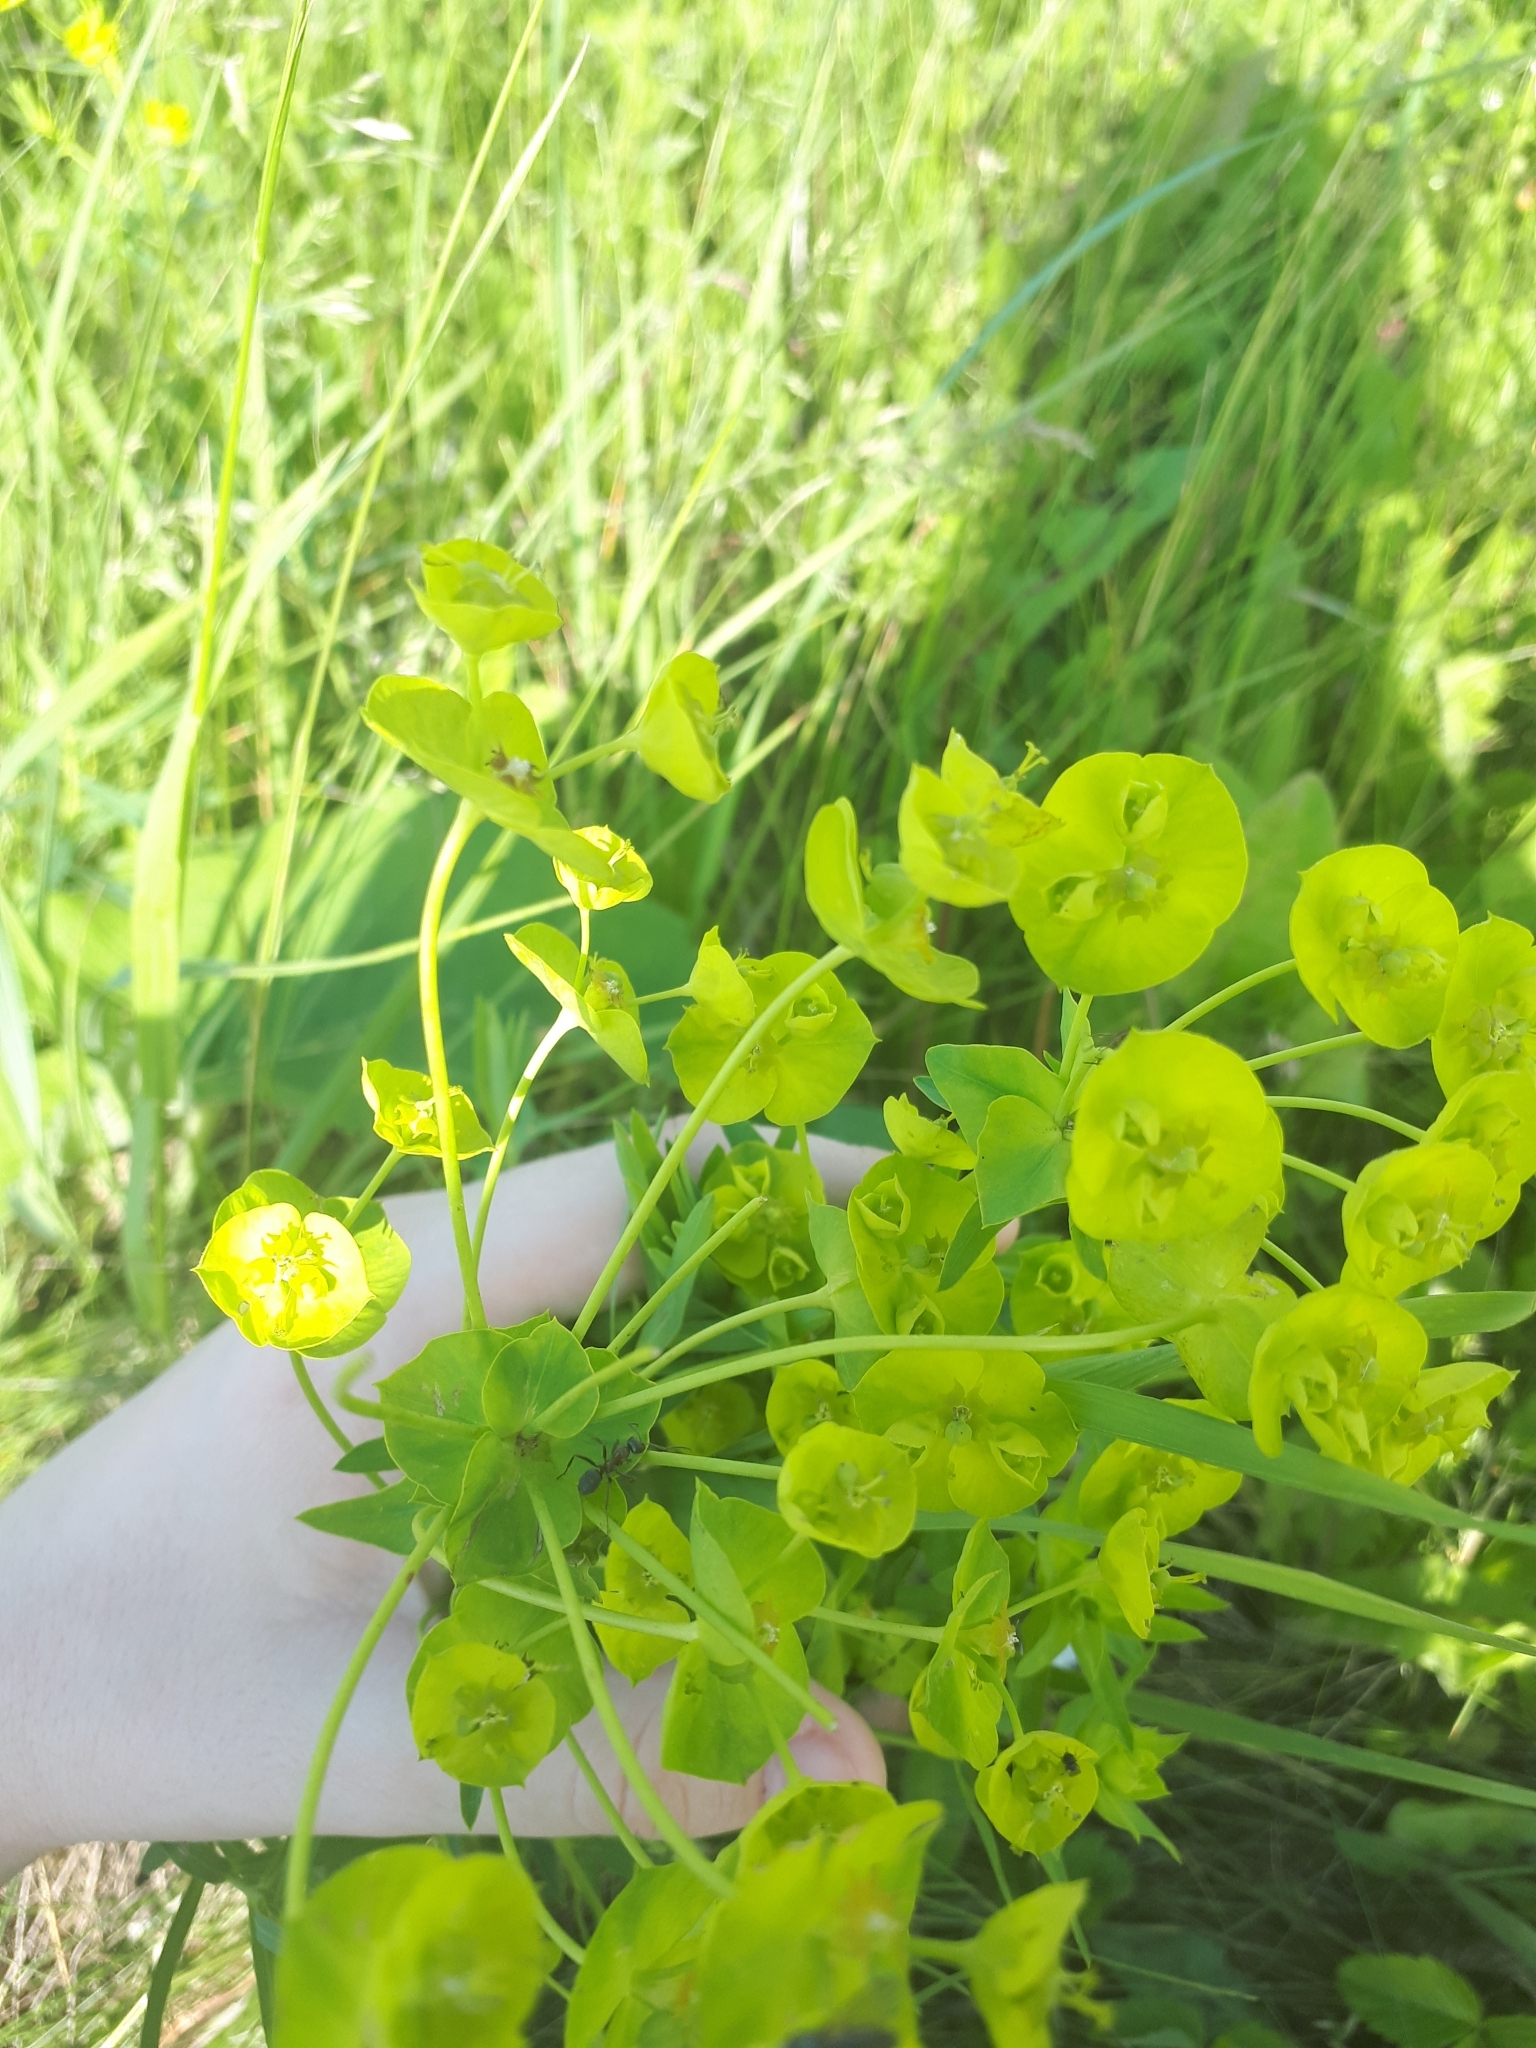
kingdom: Plantae
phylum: Tracheophyta
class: Magnoliopsida
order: Malpighiales
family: Euphorbiaceae
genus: Euphorbia
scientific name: Euphorbia virgata
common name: Leafy spurge
